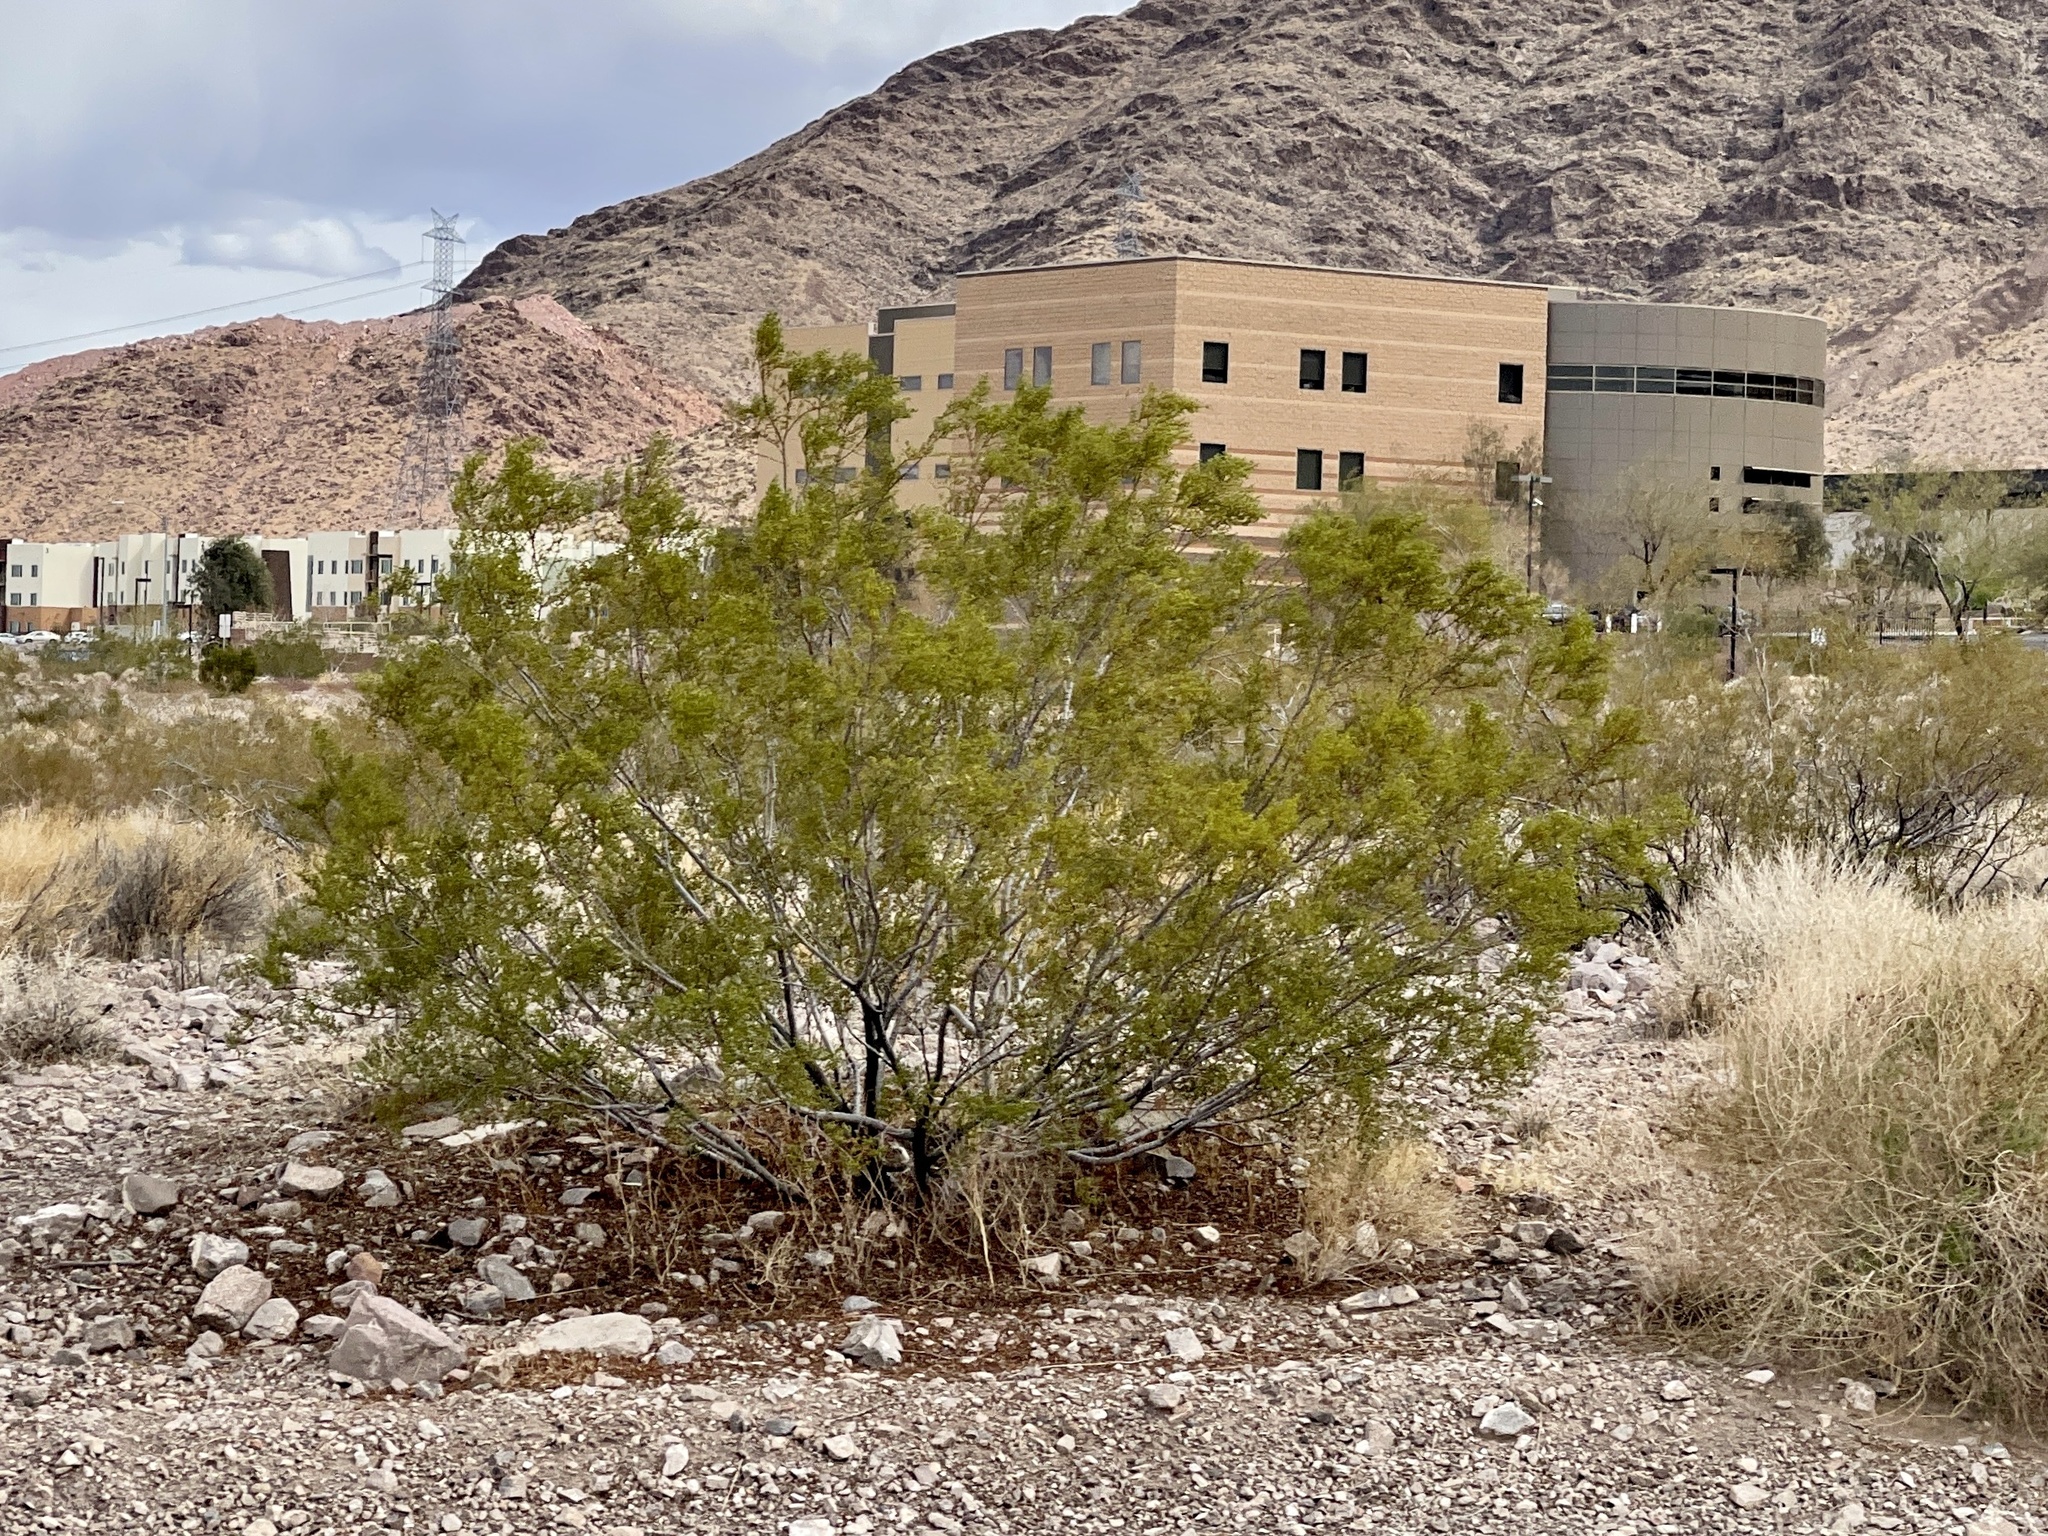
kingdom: Plantae
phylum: Tracheophyta
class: Magnoliopsida
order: Zygophyllales
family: Zygophyllaceae
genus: Larrea
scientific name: Larrea tridentata
